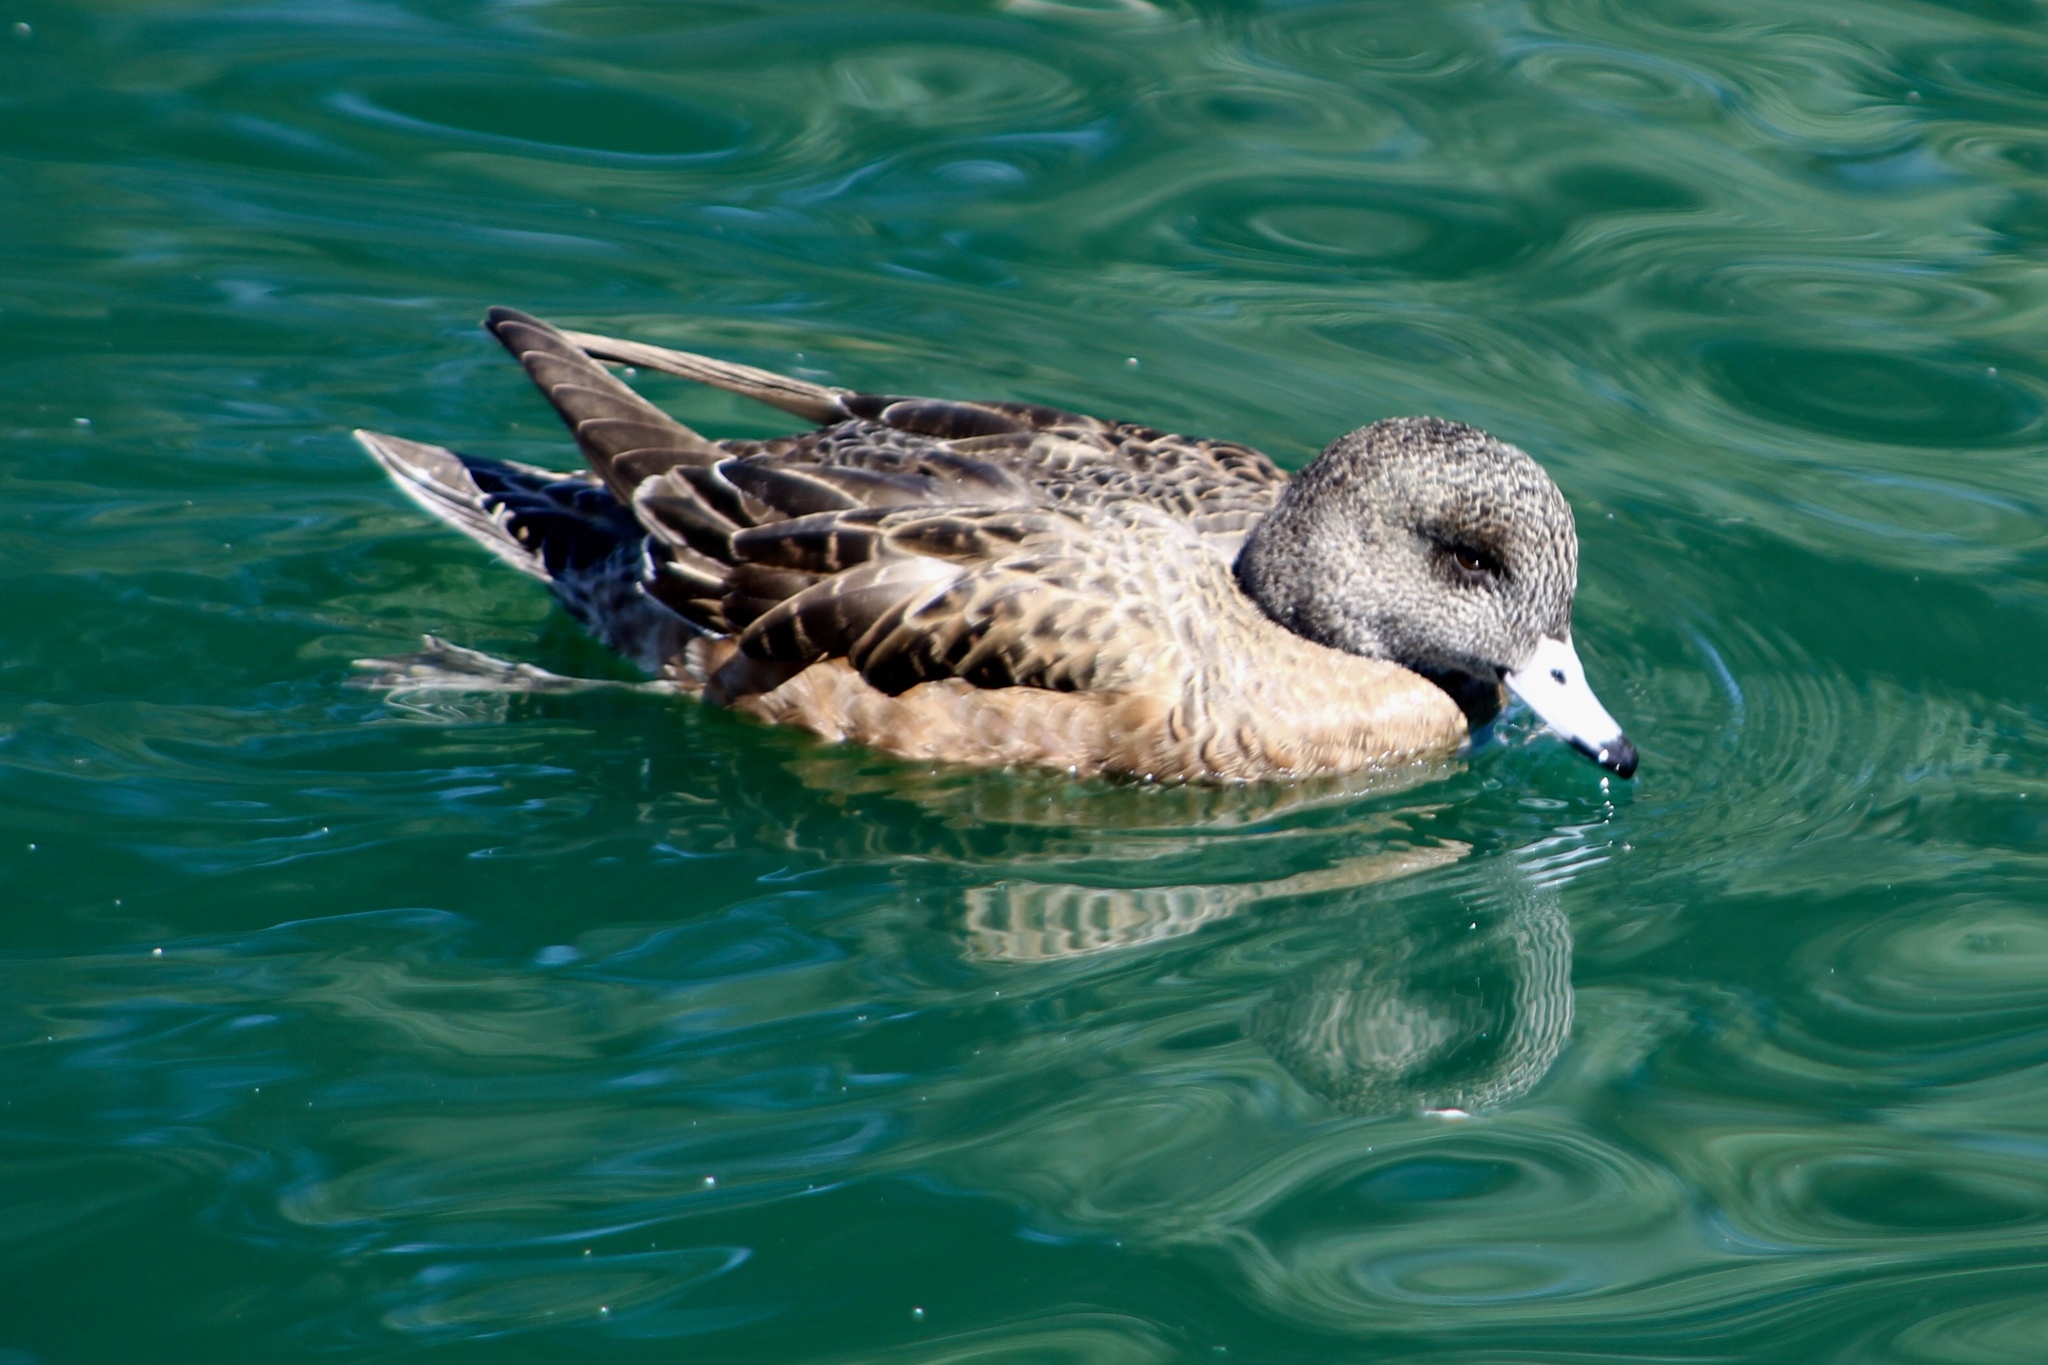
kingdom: Animalia
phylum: Chordata
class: Aves
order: Anseriformes
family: Anatidae
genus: Mareca
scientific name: Mareca americana
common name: American wigeon
